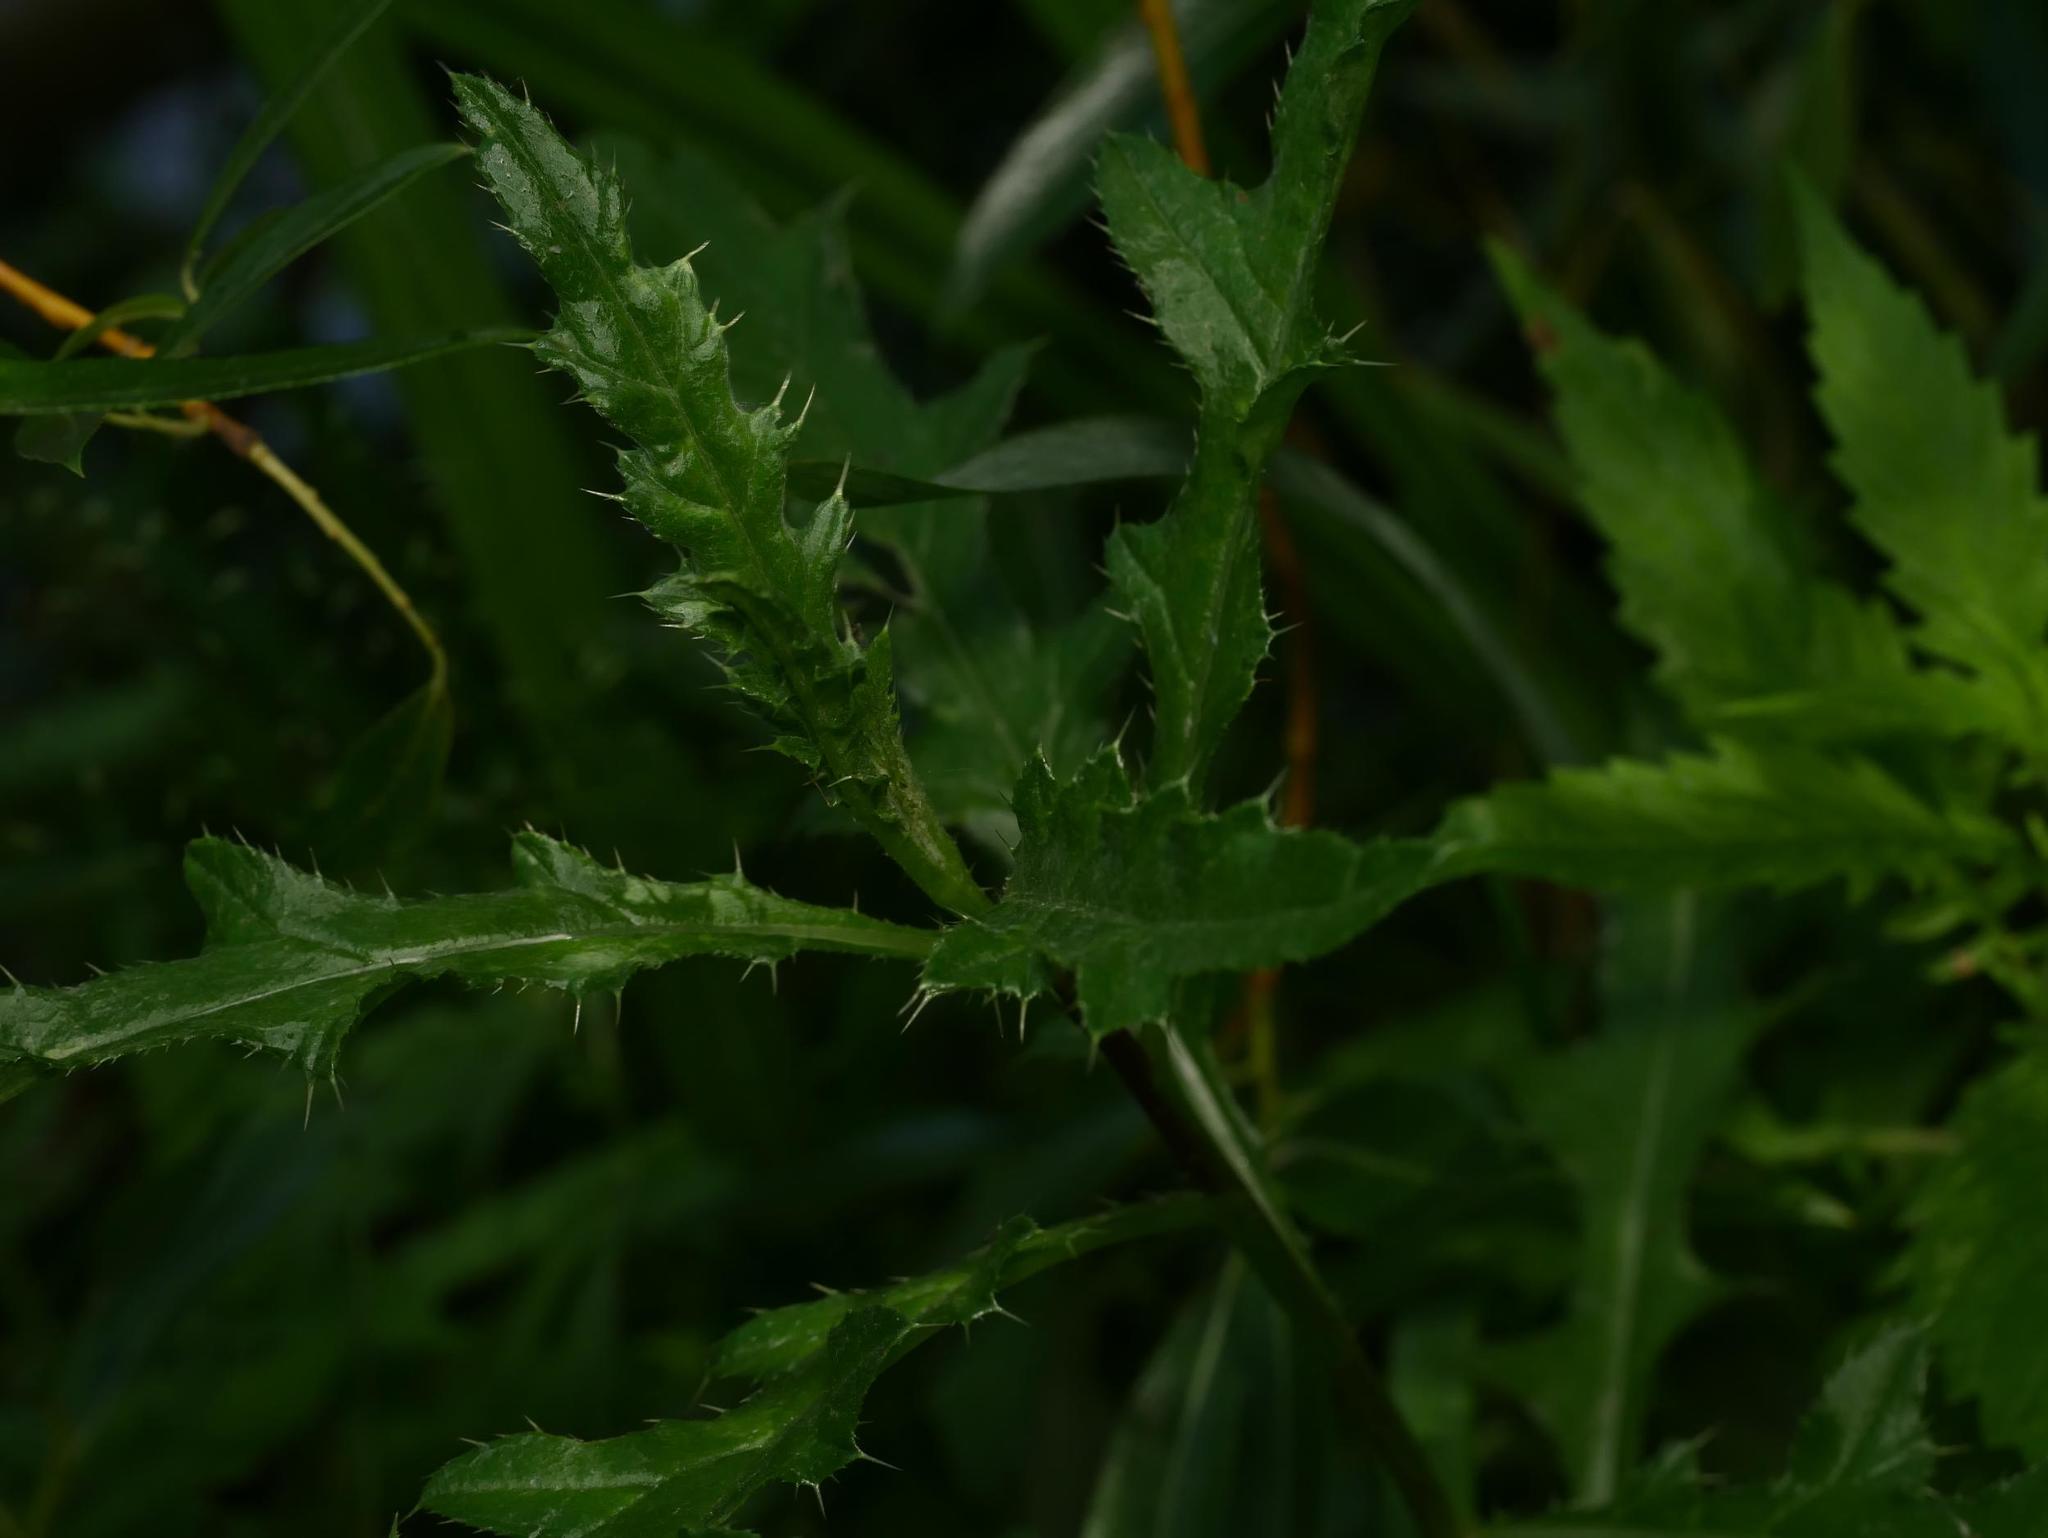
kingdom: Plantae
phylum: Tracheophyta
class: Magnoliopsida
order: Asterales
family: Asteraceae
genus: Cirsium
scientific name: Cirsium arvense
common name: Creeping thistle
